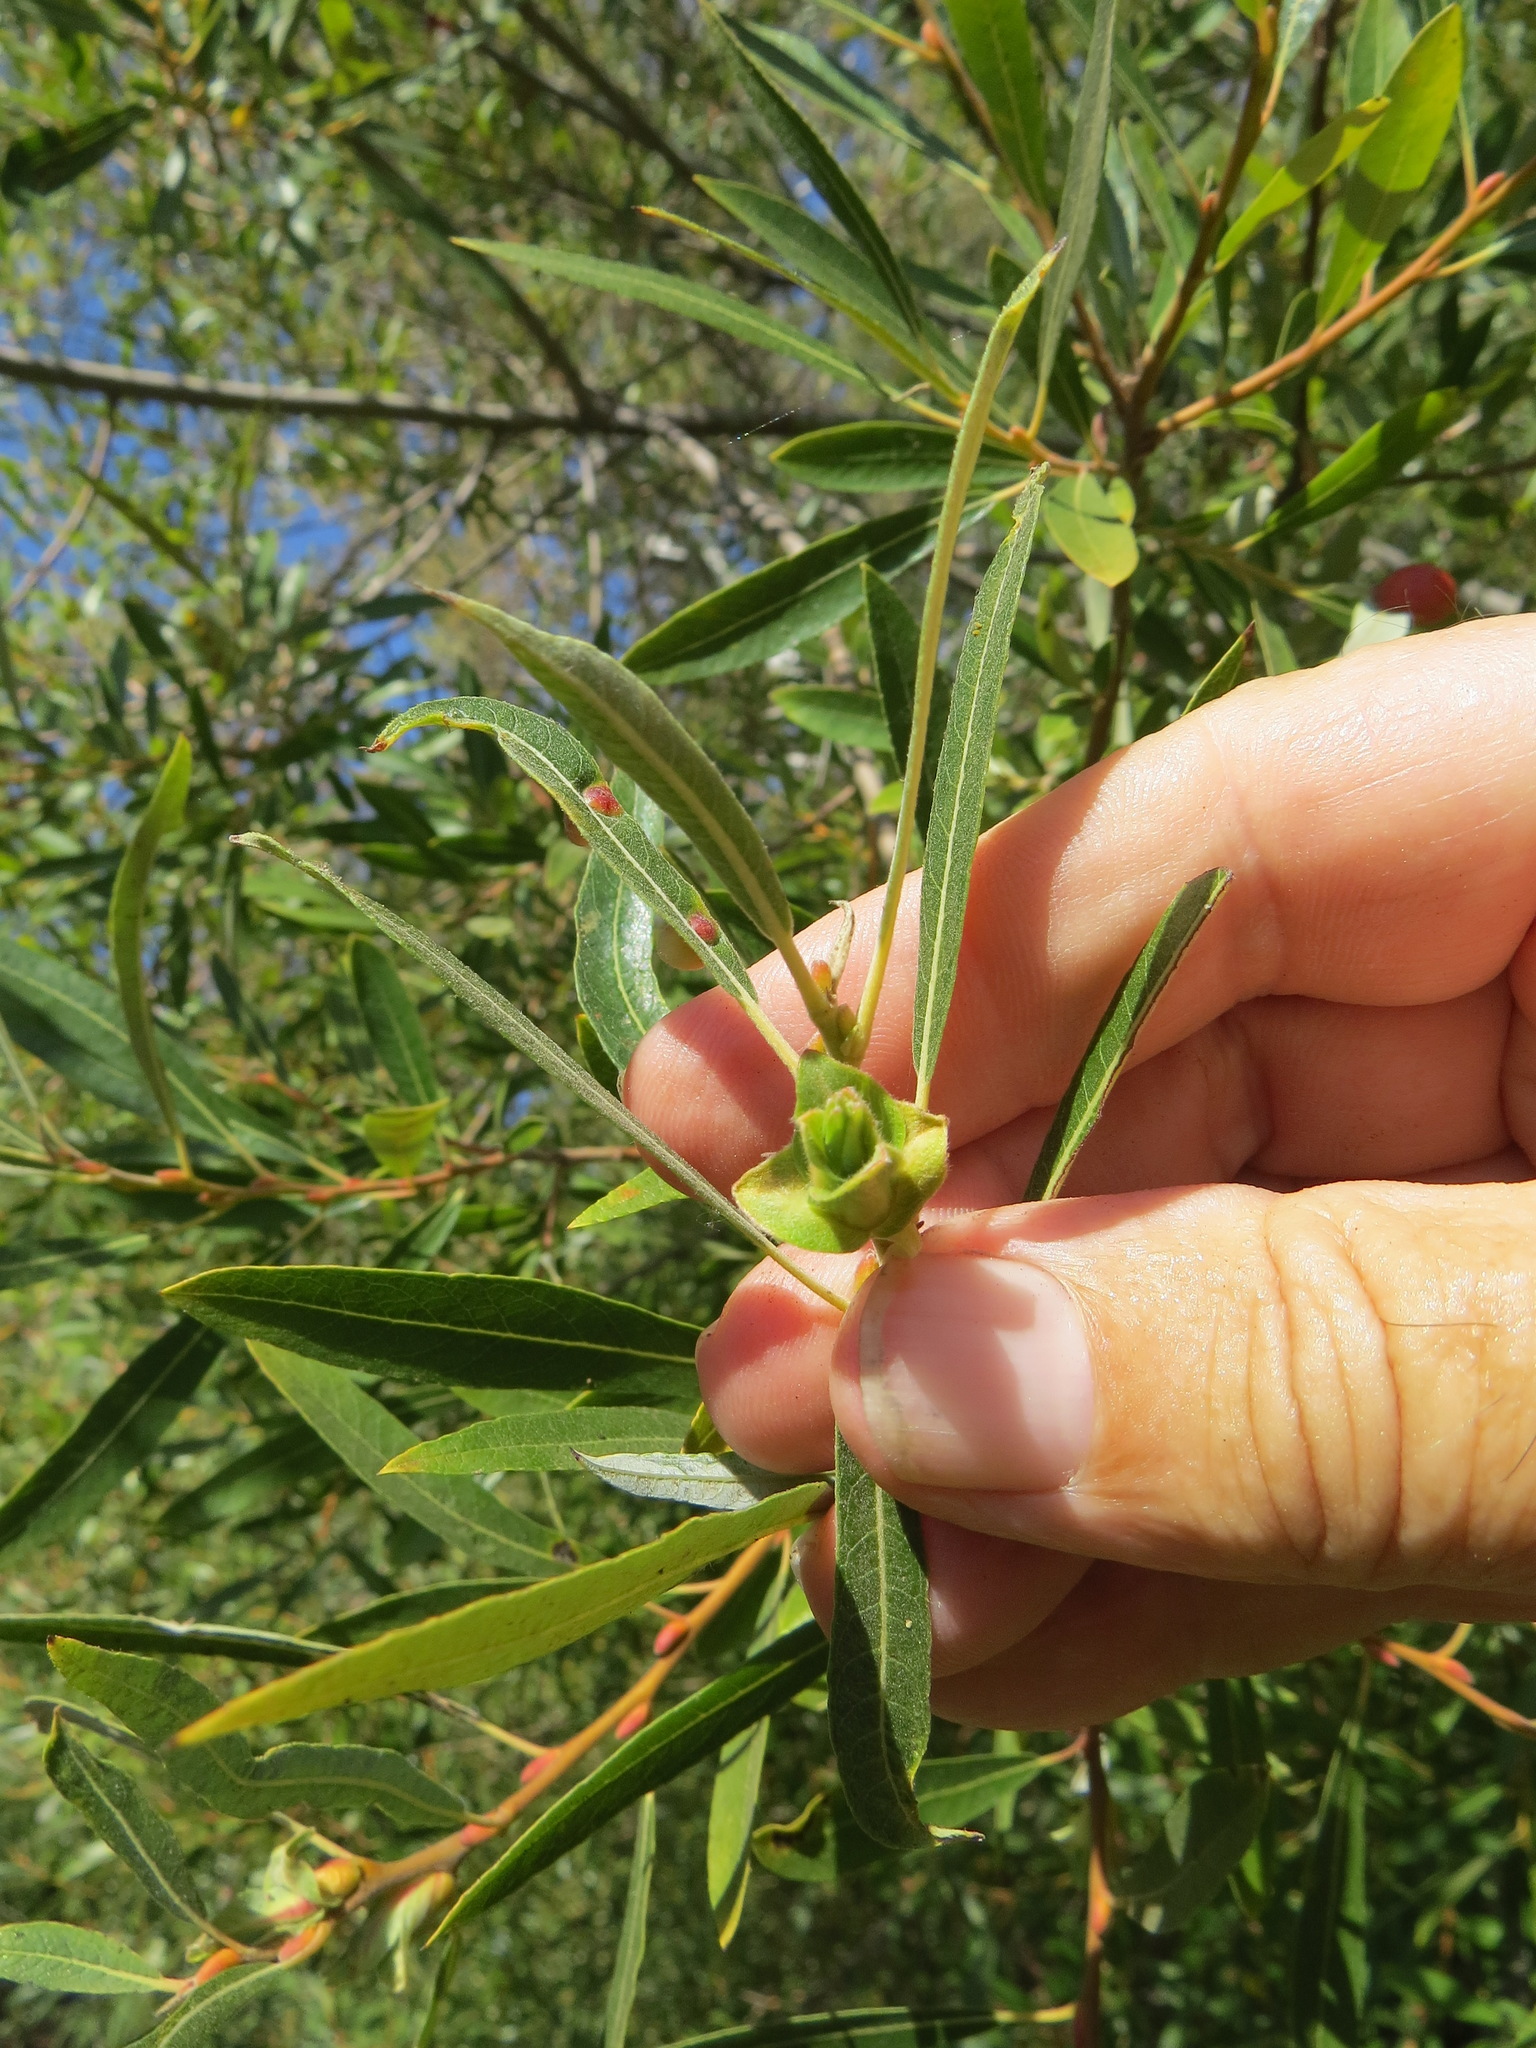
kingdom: Animalia
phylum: Arthropoda
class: Insecta
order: Diptera
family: Cecidomyiidae
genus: Rabdophaga
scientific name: Rabdophaga salicisbrassicoides
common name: Willow cabbagegall midge
